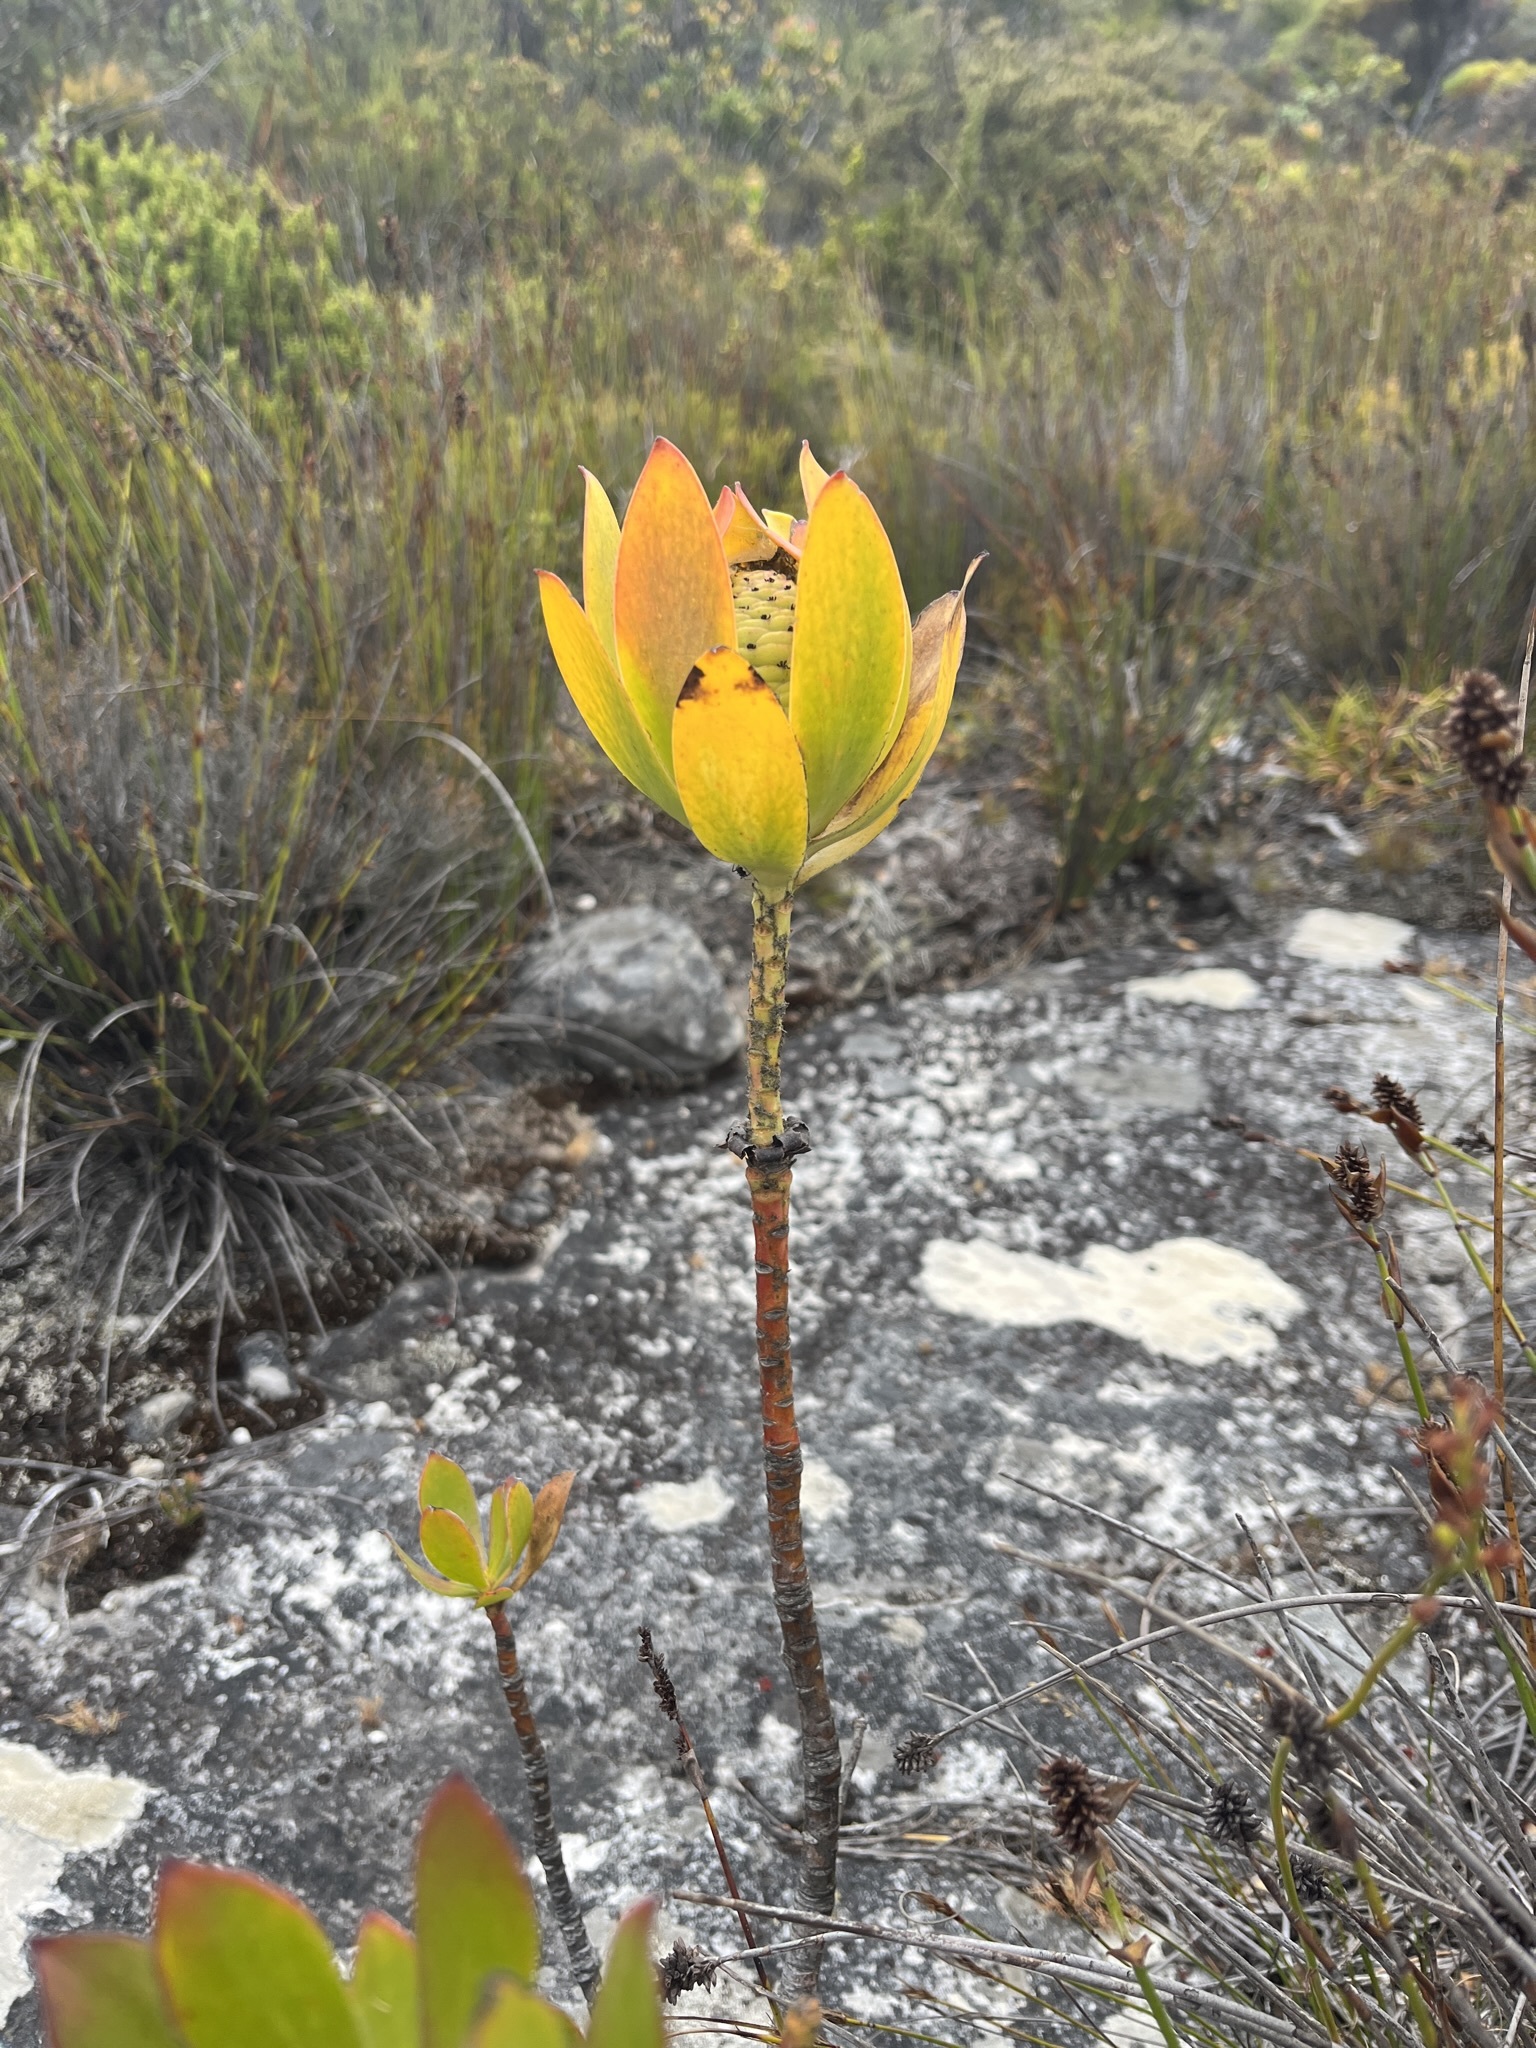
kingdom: Plantae
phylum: Tracheophyta
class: Magnoliopsida
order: Proteales
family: Proteaceae
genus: Leucadendron
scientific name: Leucadendron strobilinum
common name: Mountain rose
